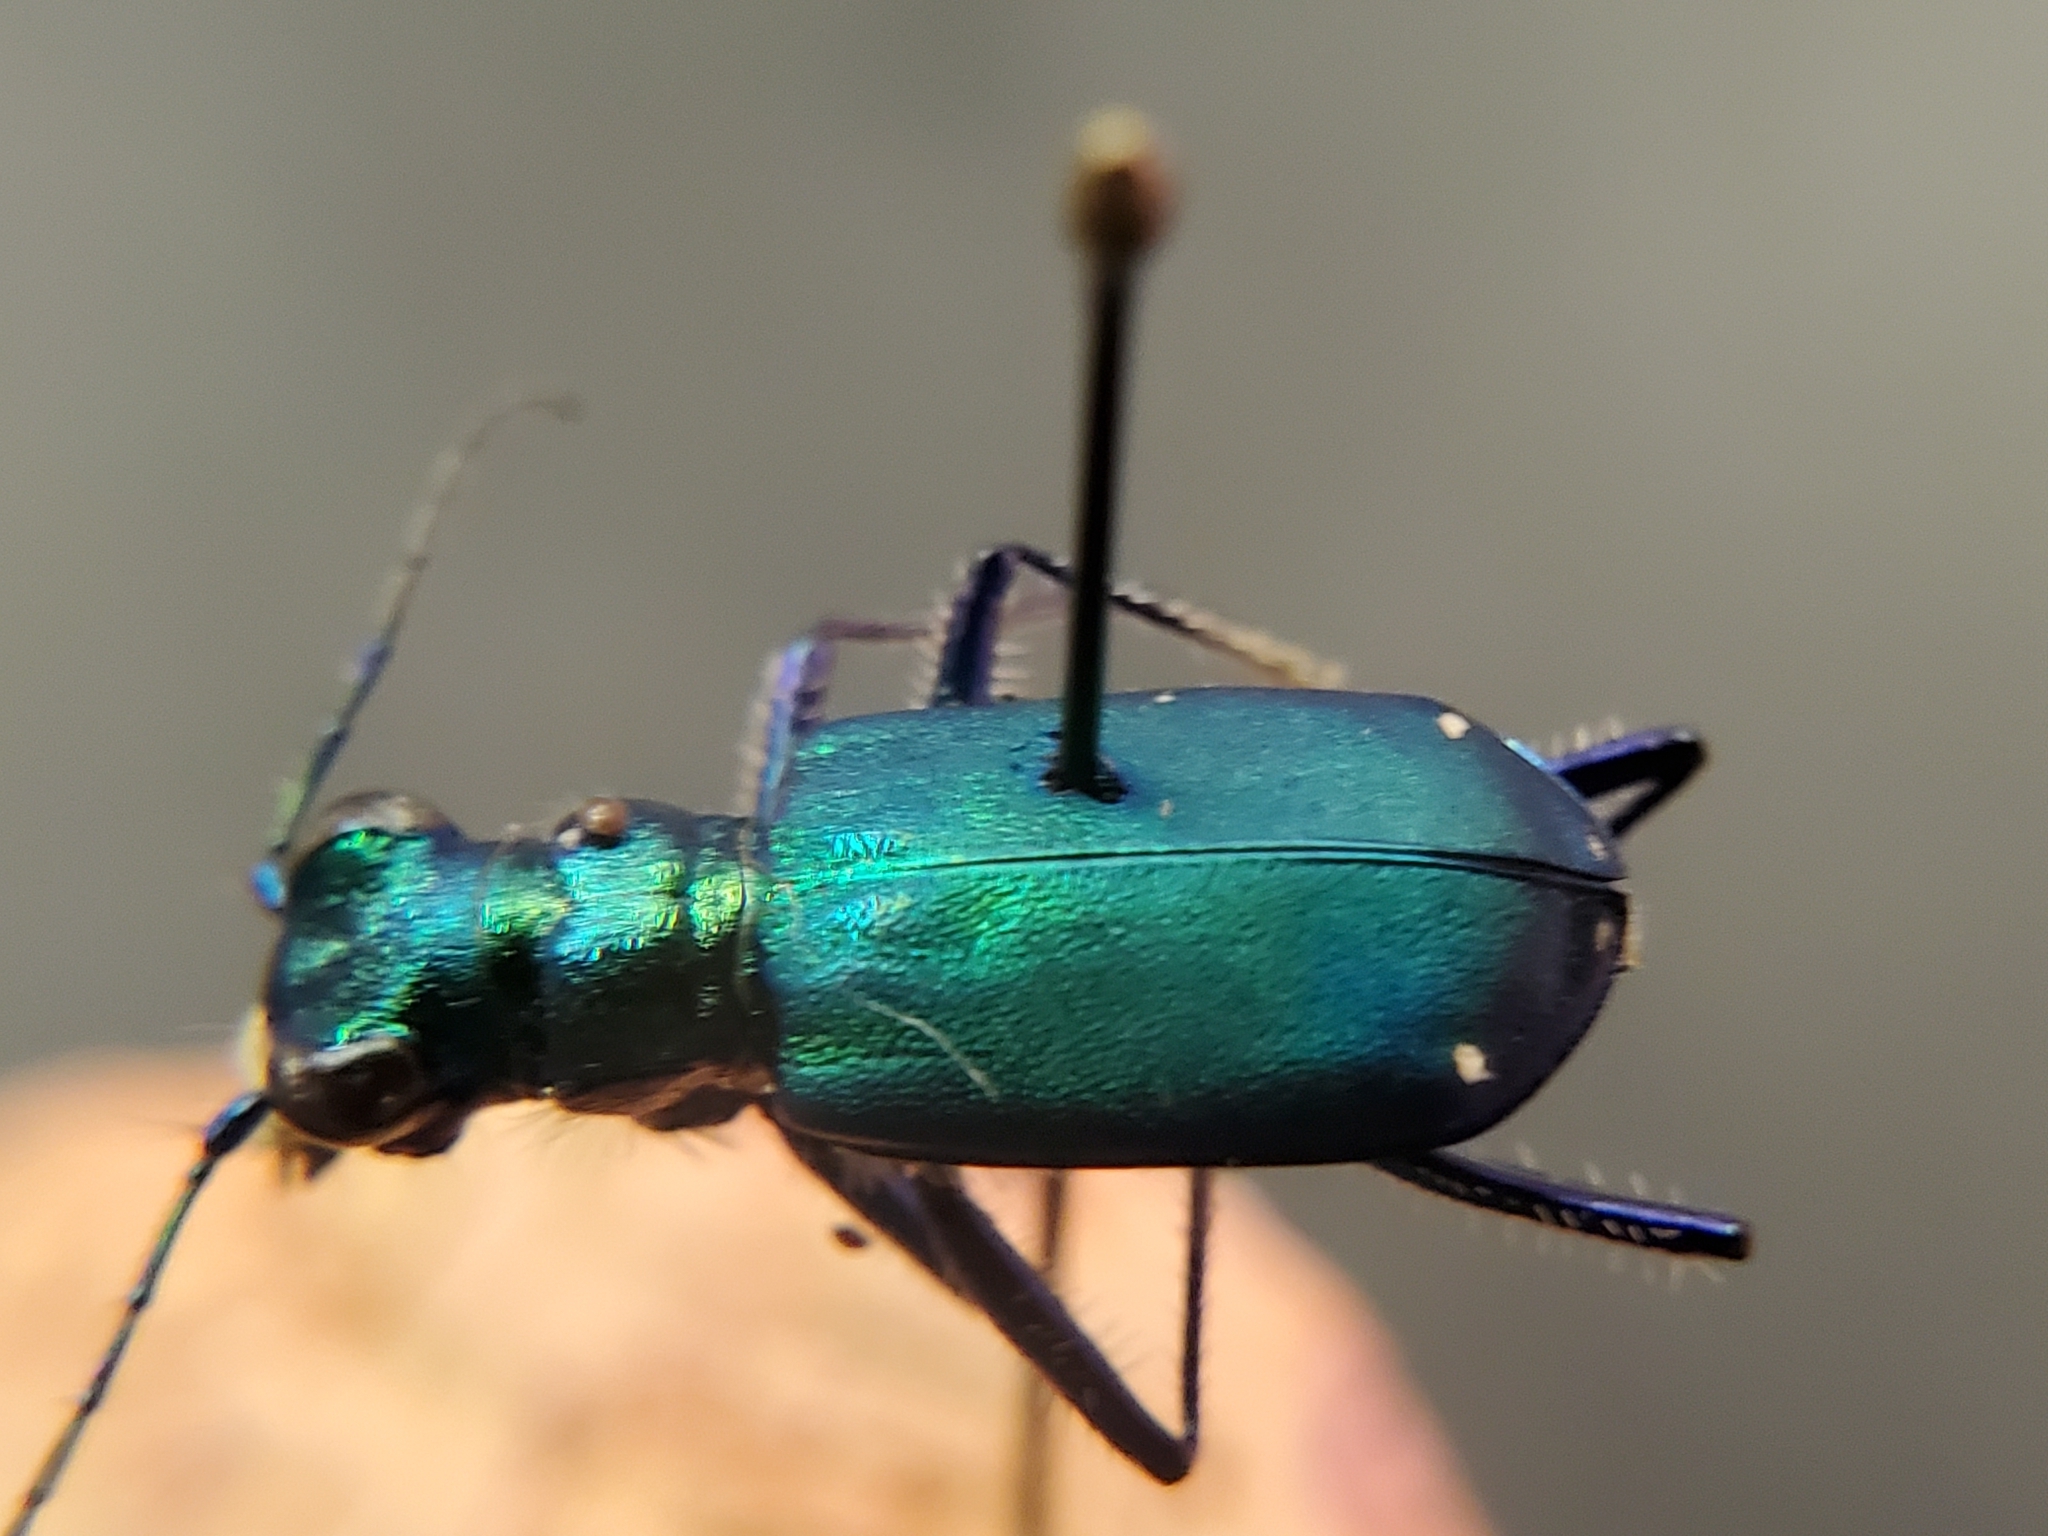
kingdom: Animalia
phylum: Arthropoda
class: Insecta
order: Coleoptera
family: Carabidae
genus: Cicindela
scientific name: Cicindela sexguttata
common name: Six-spotted tiger beetle
